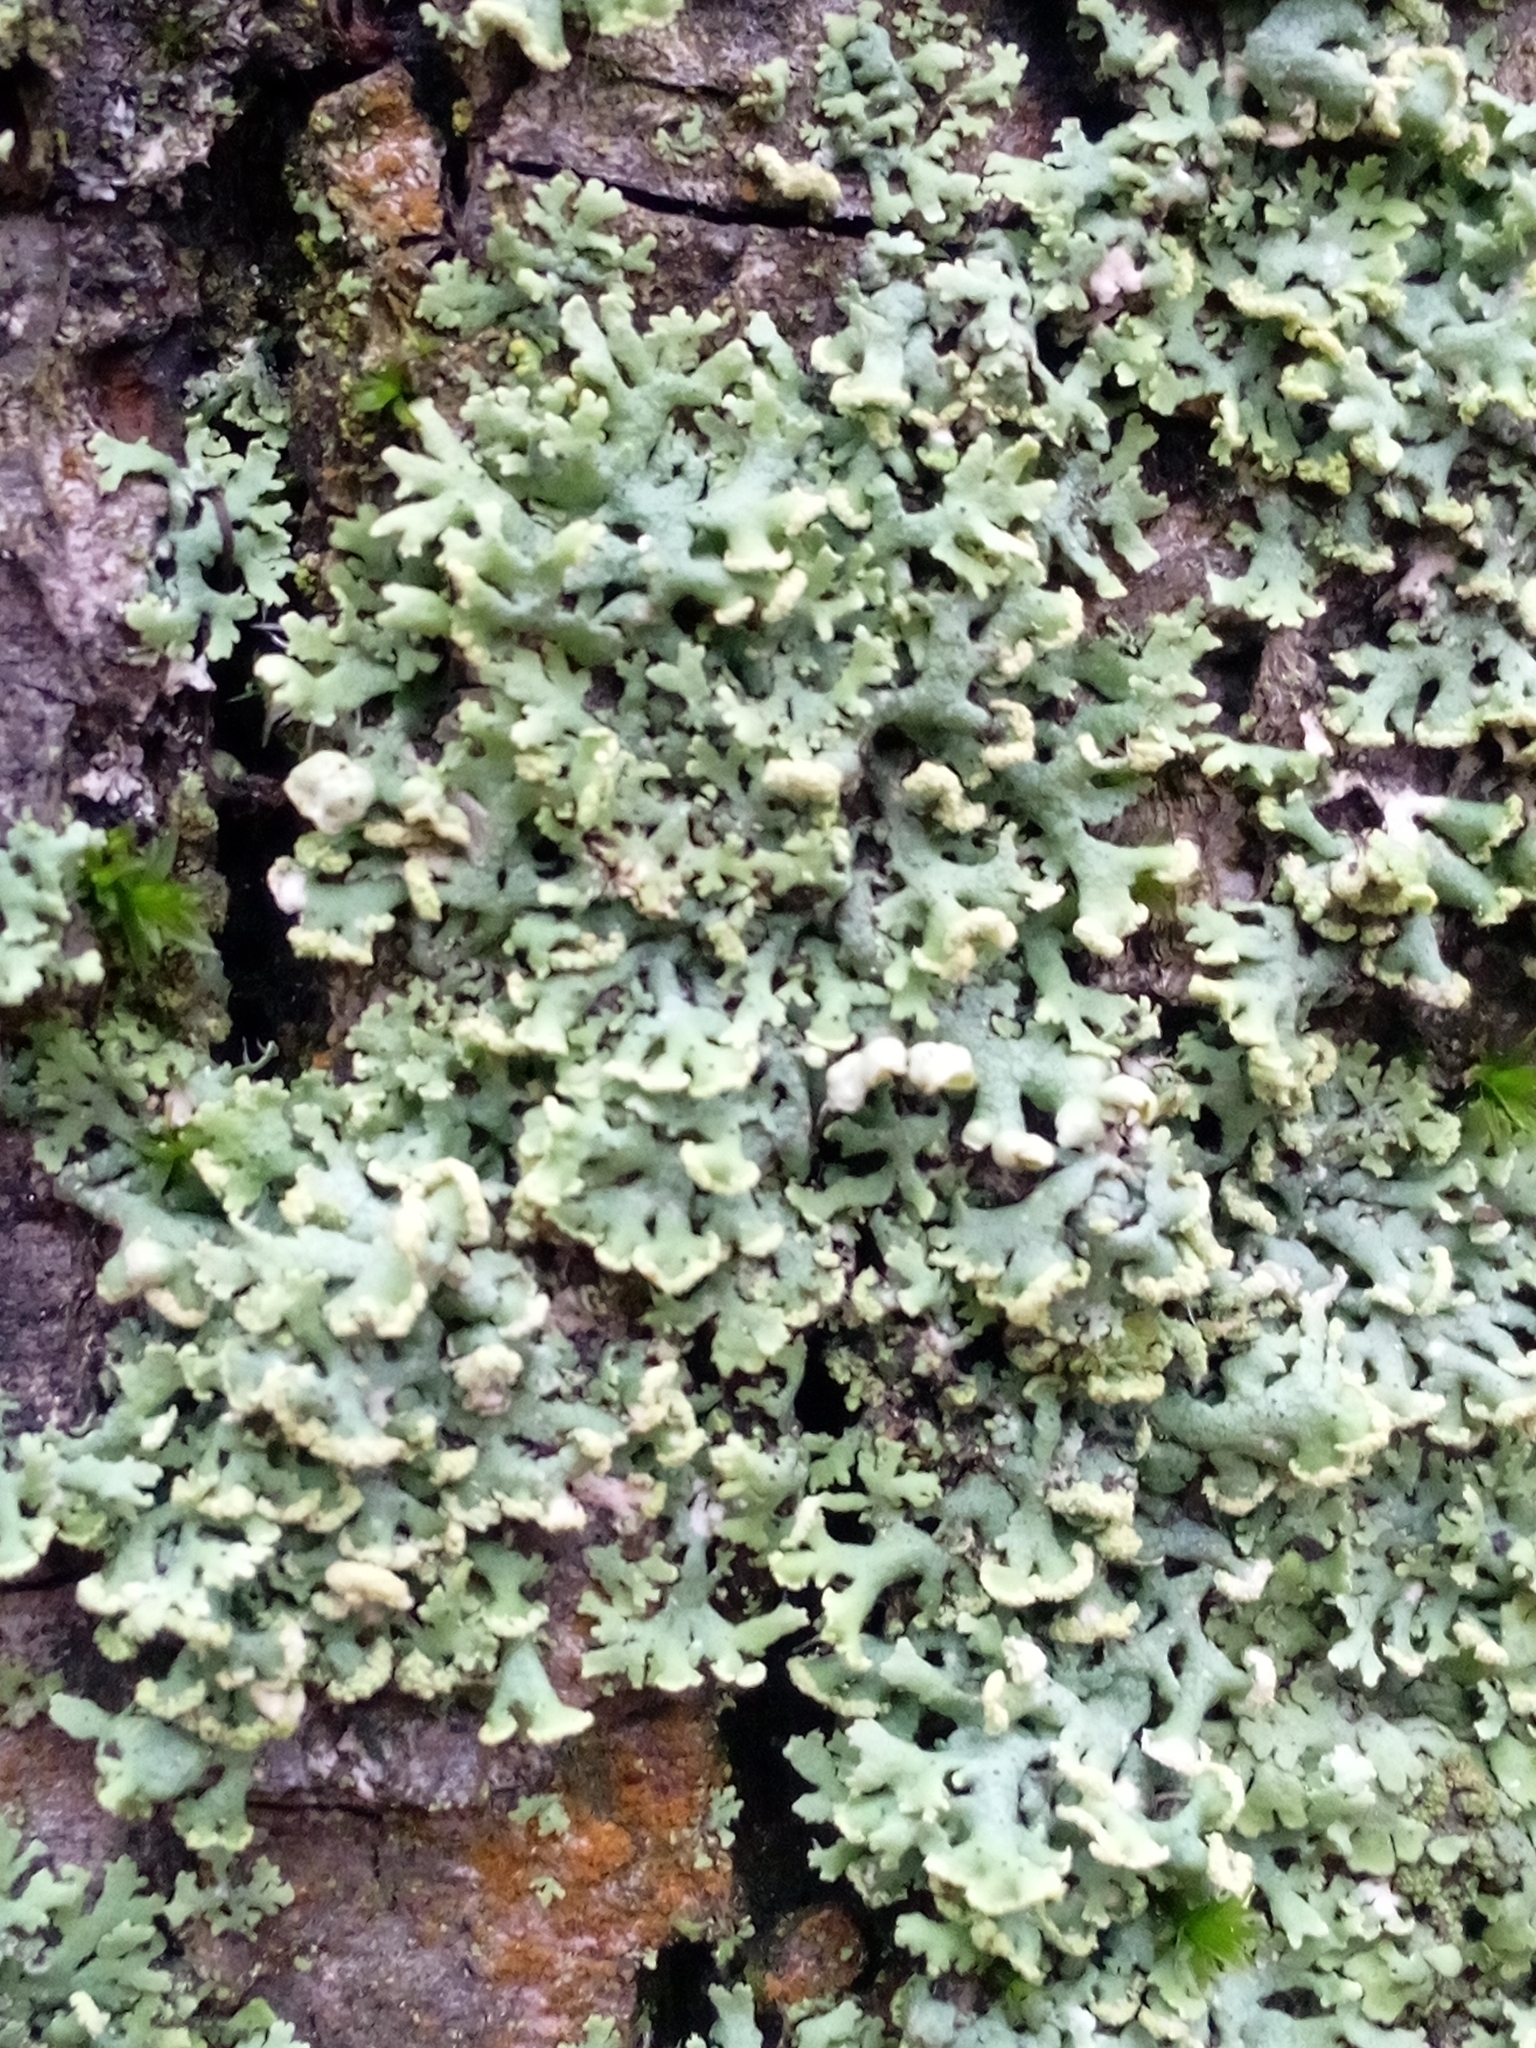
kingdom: Fungi
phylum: Ascomycota
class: Lecanoromycetes
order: Caliciales
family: Physciaceae
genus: Physcia
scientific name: Physcia adscendens
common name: Hooded rosette lichen
